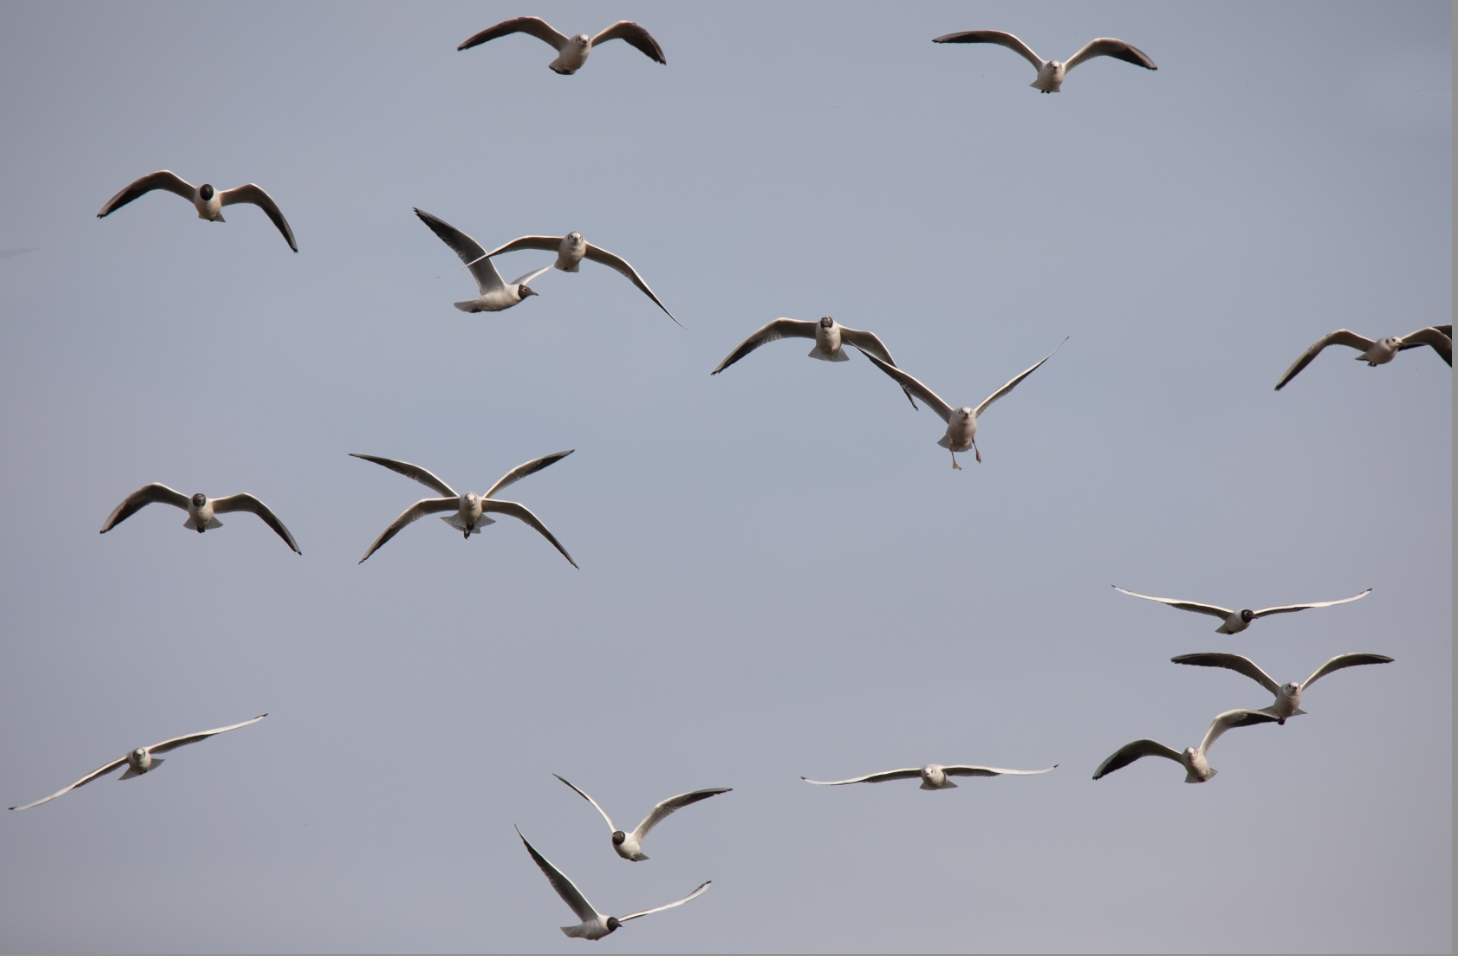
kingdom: Animalia
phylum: Chordata
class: Aves
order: Charadriiformes
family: Laridae
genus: Chroicocephalus
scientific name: Chroicocephalus ridibundus
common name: Black-headed gull
